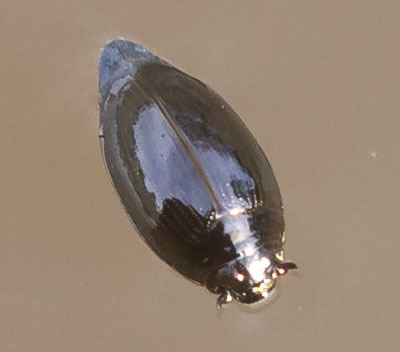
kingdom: Animalia
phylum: Arthropoda
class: Insecta
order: Coleoptera
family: Gyrinidae
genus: Gyrinus
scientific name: Gyrinus
